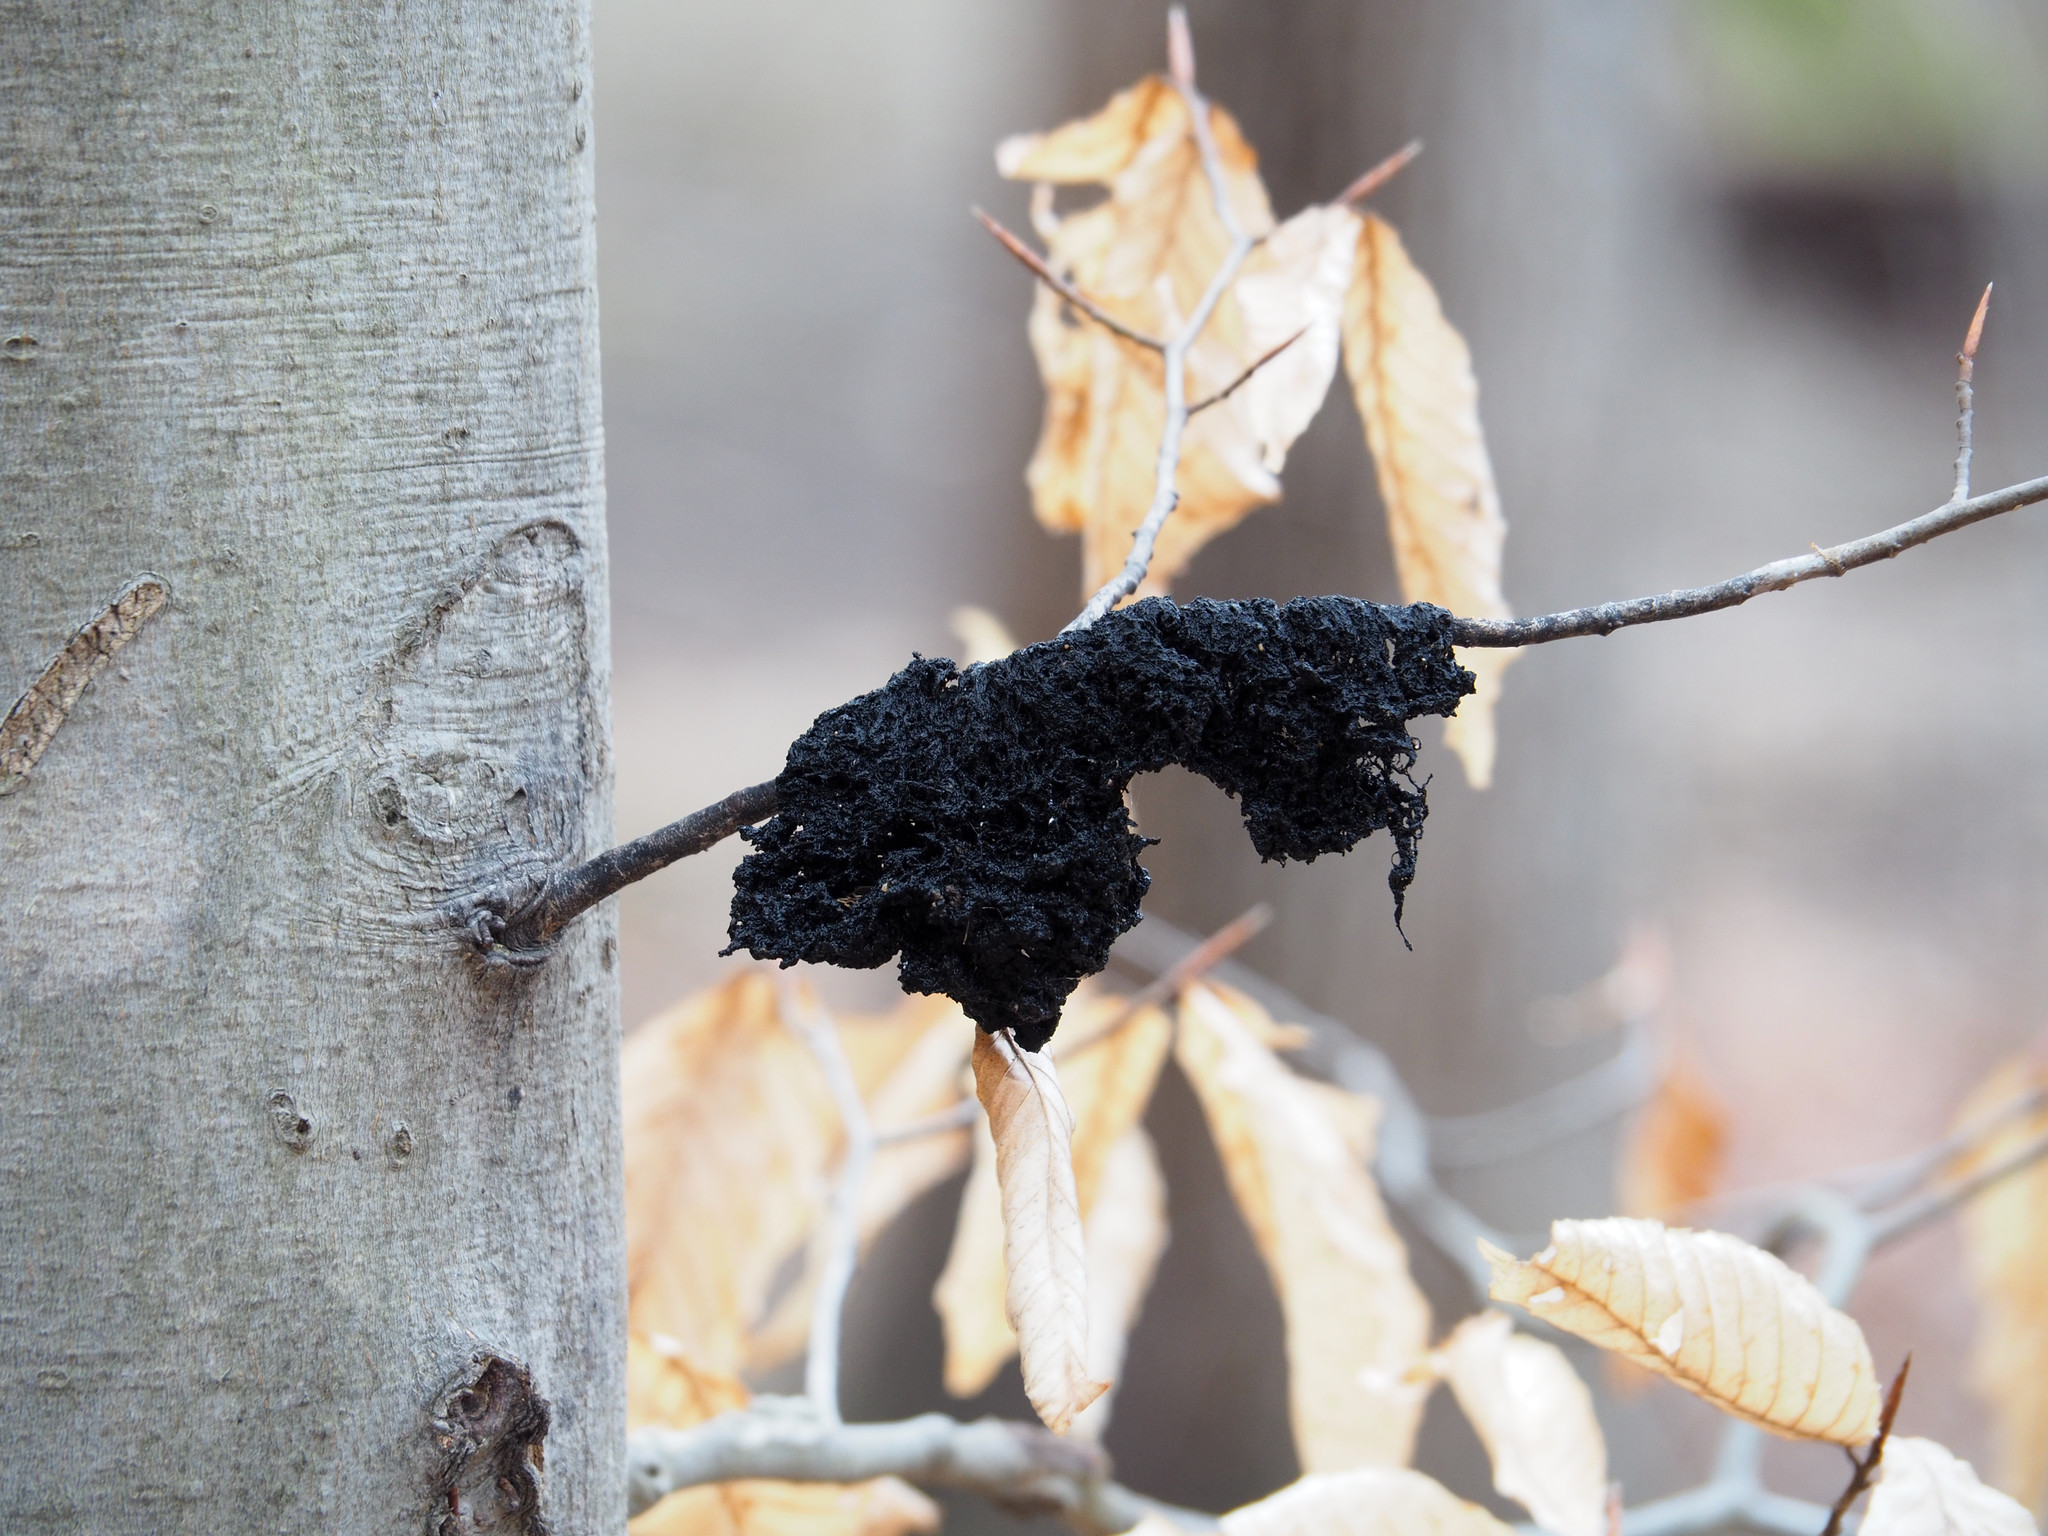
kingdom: Fungi
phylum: Ascomycota
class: Dothideomycetes
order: Capnodiales
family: Capnodiaceae
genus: Scorias
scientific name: Scorias spongiosa
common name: Black sooty mold
